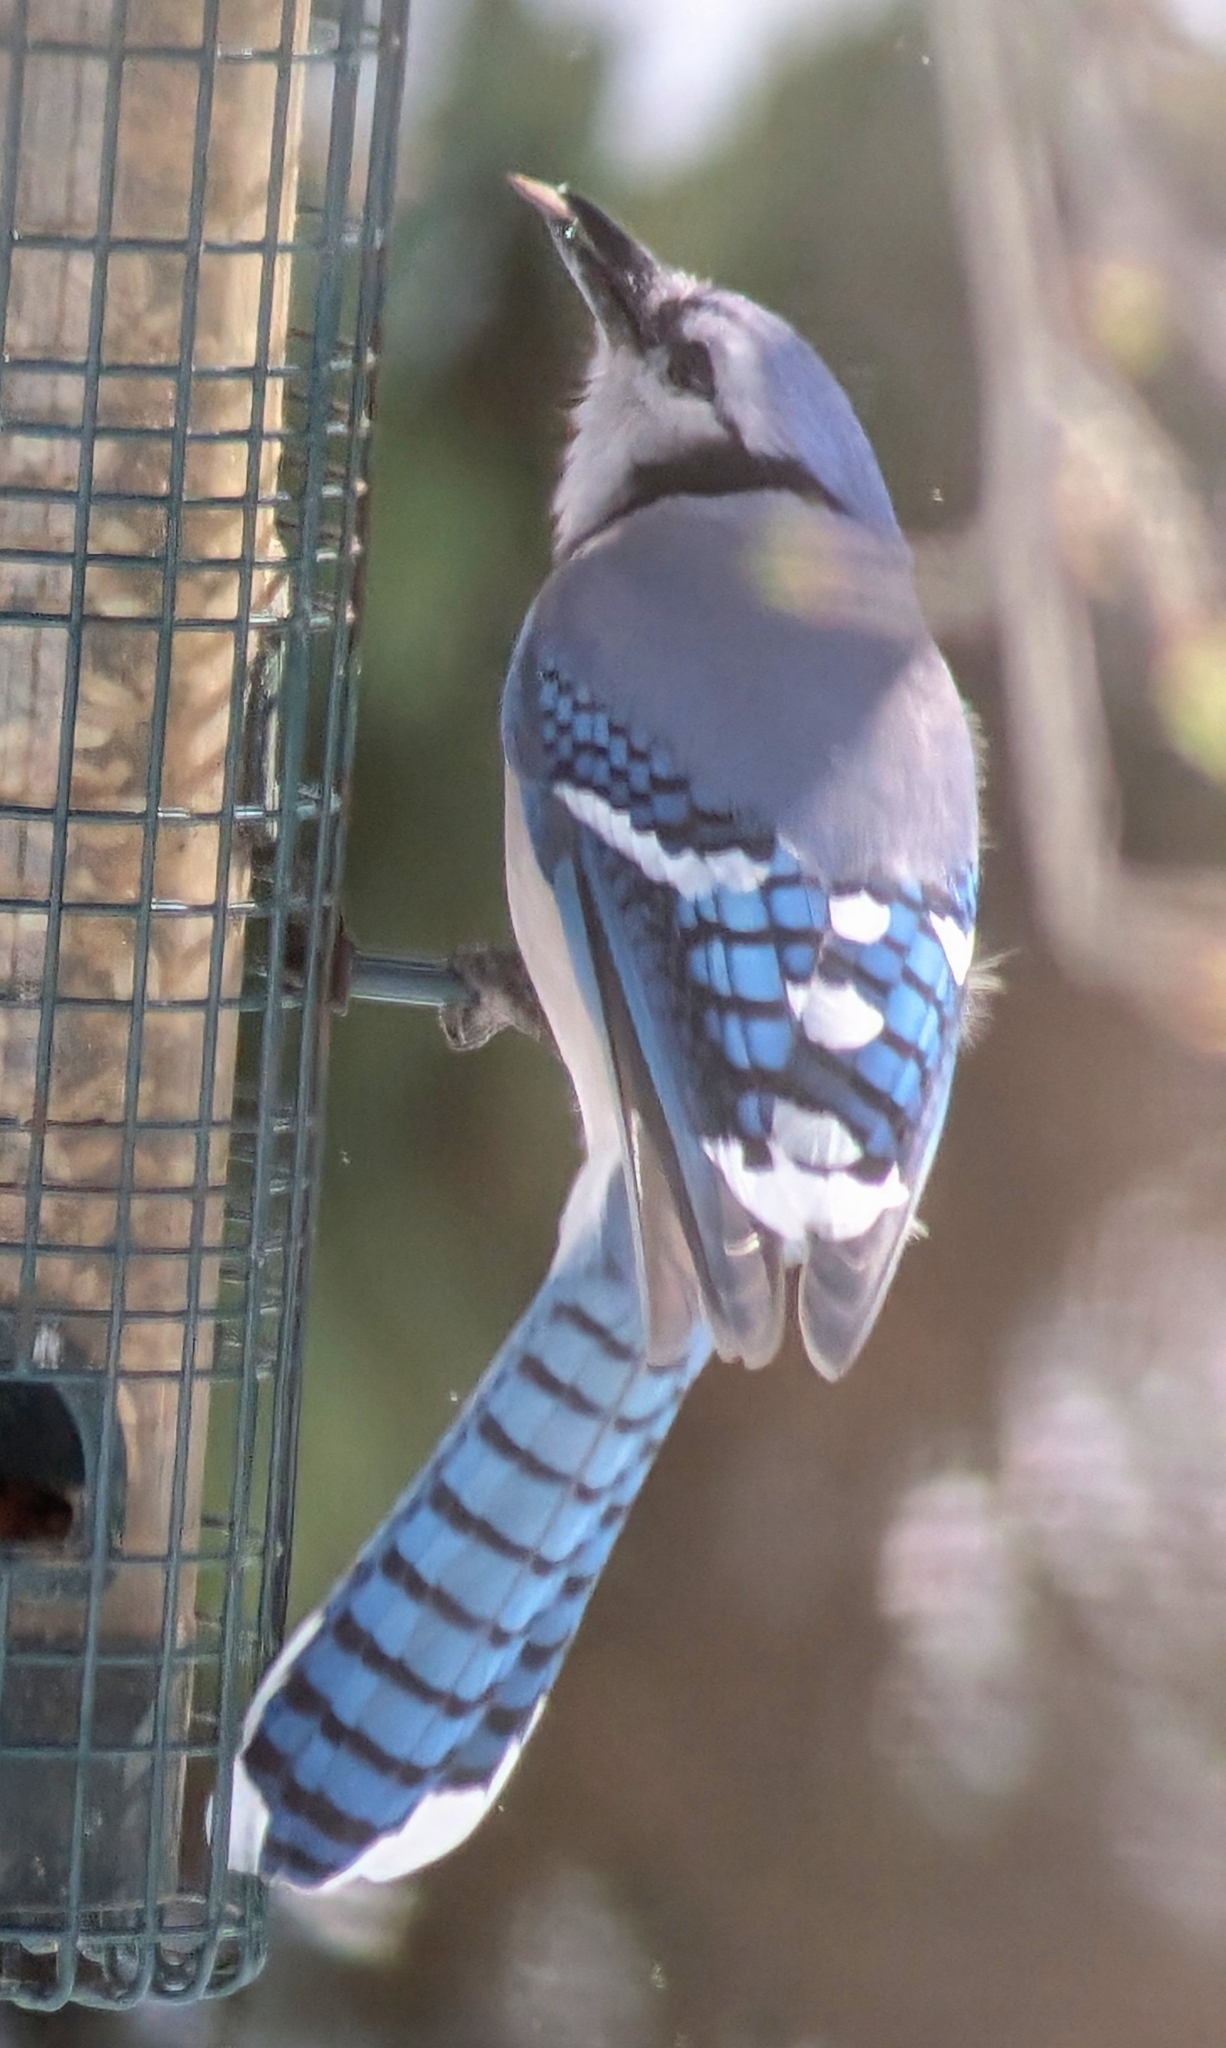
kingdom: Animalia
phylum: Chordata
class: Aves
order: Passeriformes
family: Corvidae
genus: Cyanocitta
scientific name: Cyanocitta cristata
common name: Blue jay
